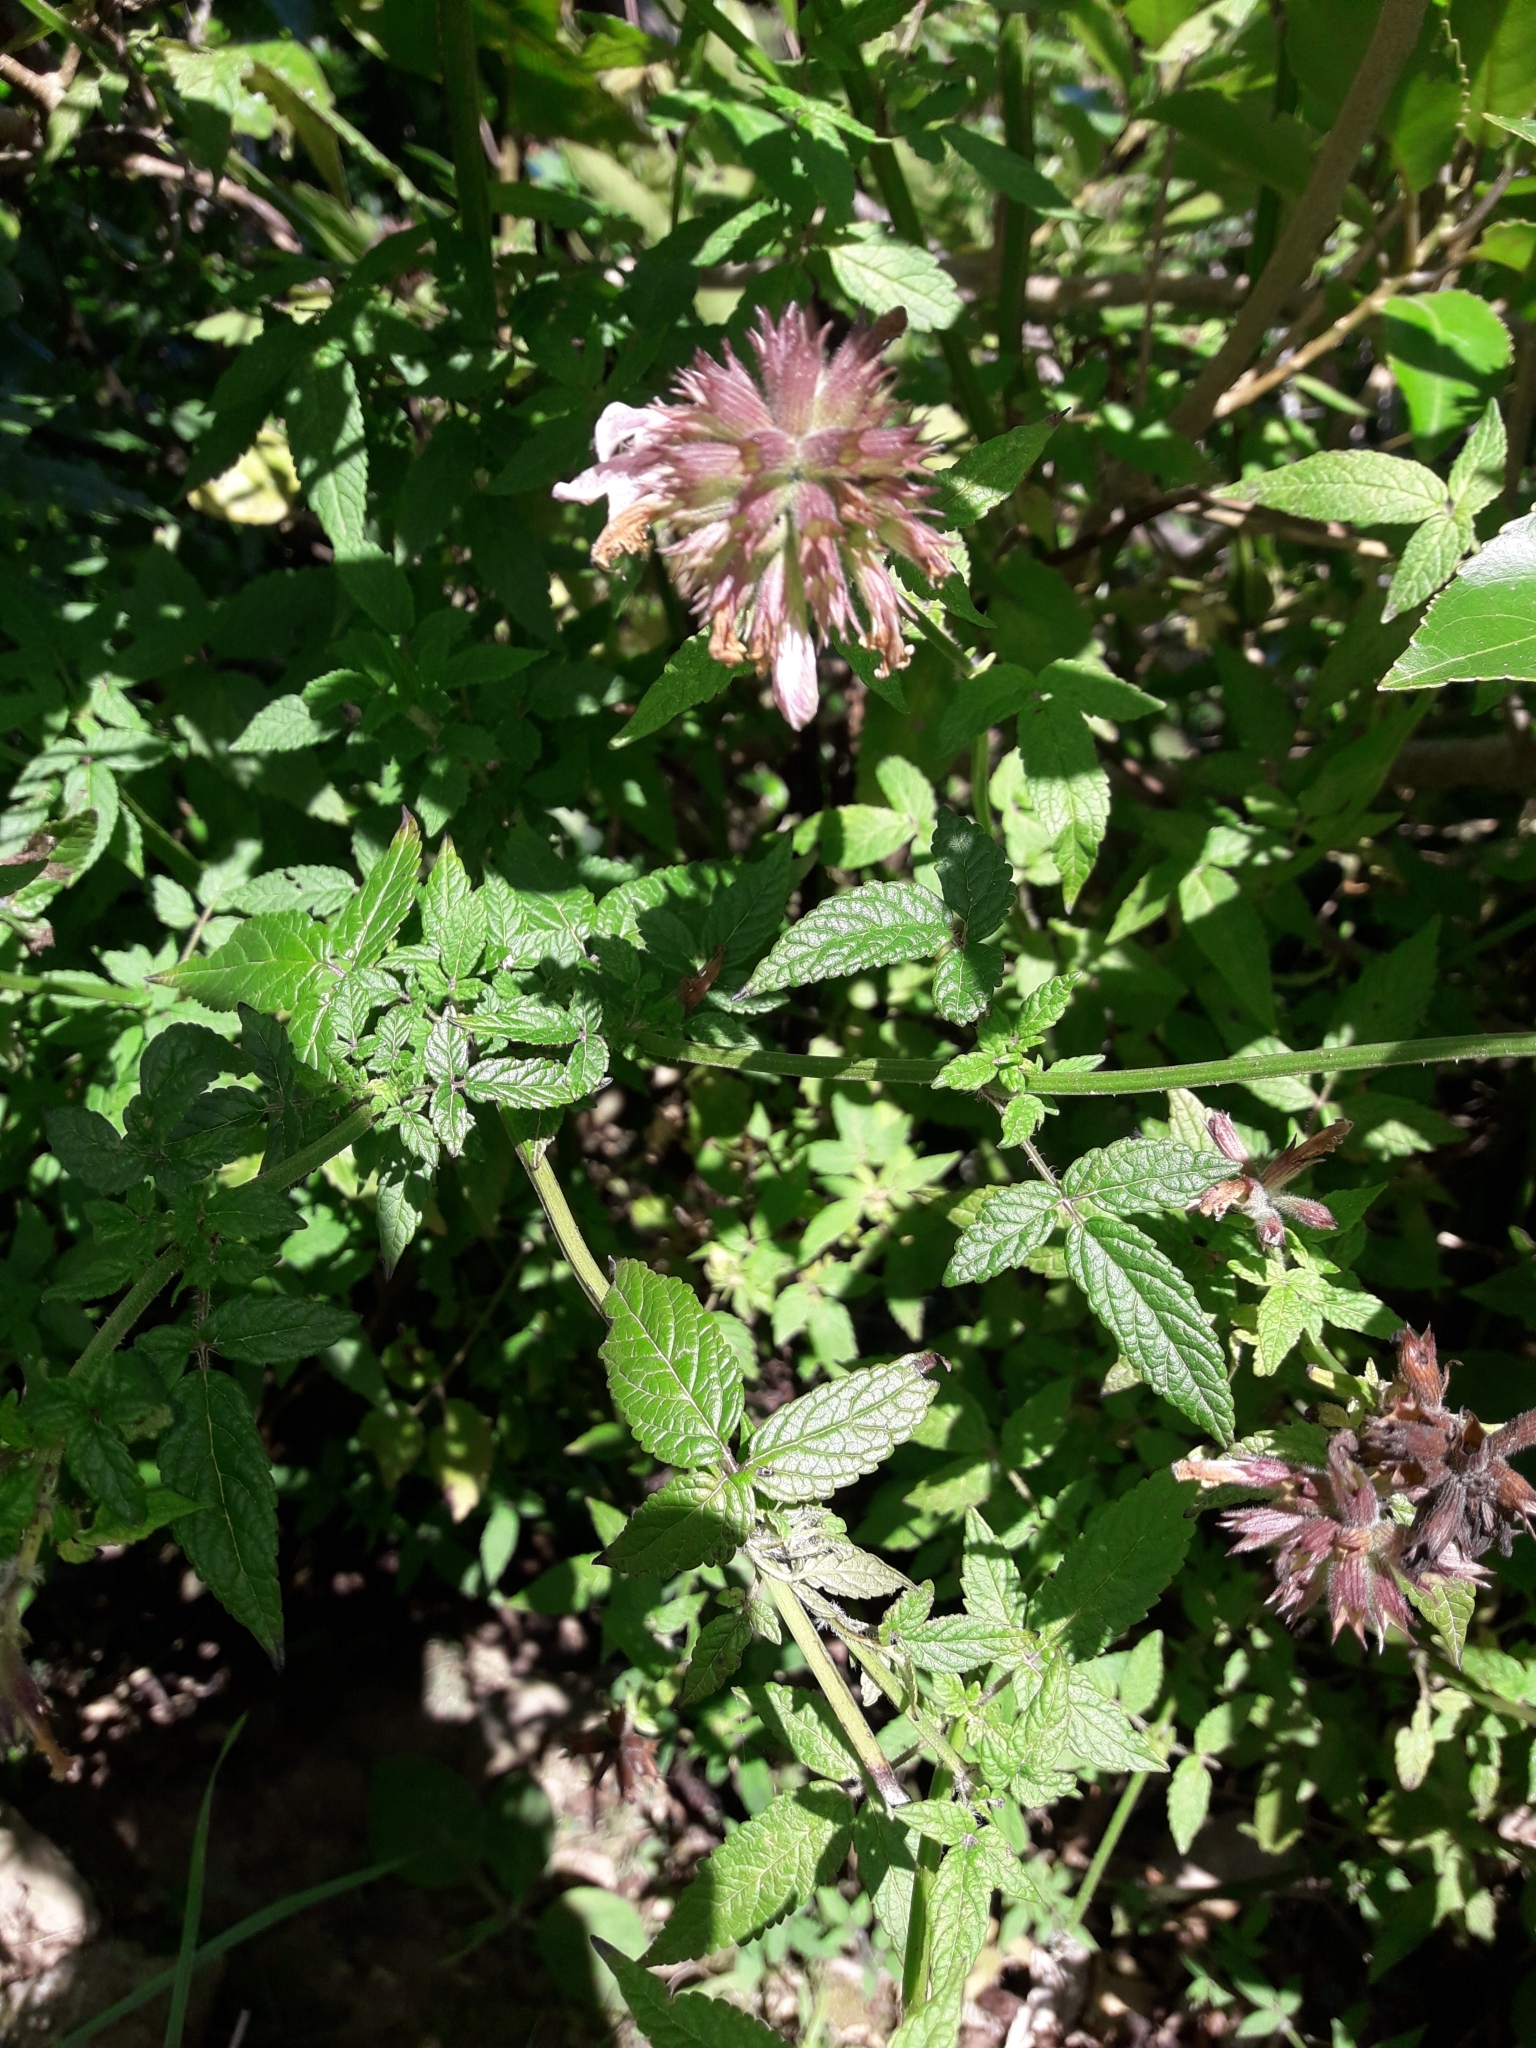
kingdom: Plantae
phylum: Tracheophyta
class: Magnoliopsida
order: Lamiales
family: Lamiaceae
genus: Cedronella
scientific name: Cedronella canariensis
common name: Canary islands balm
